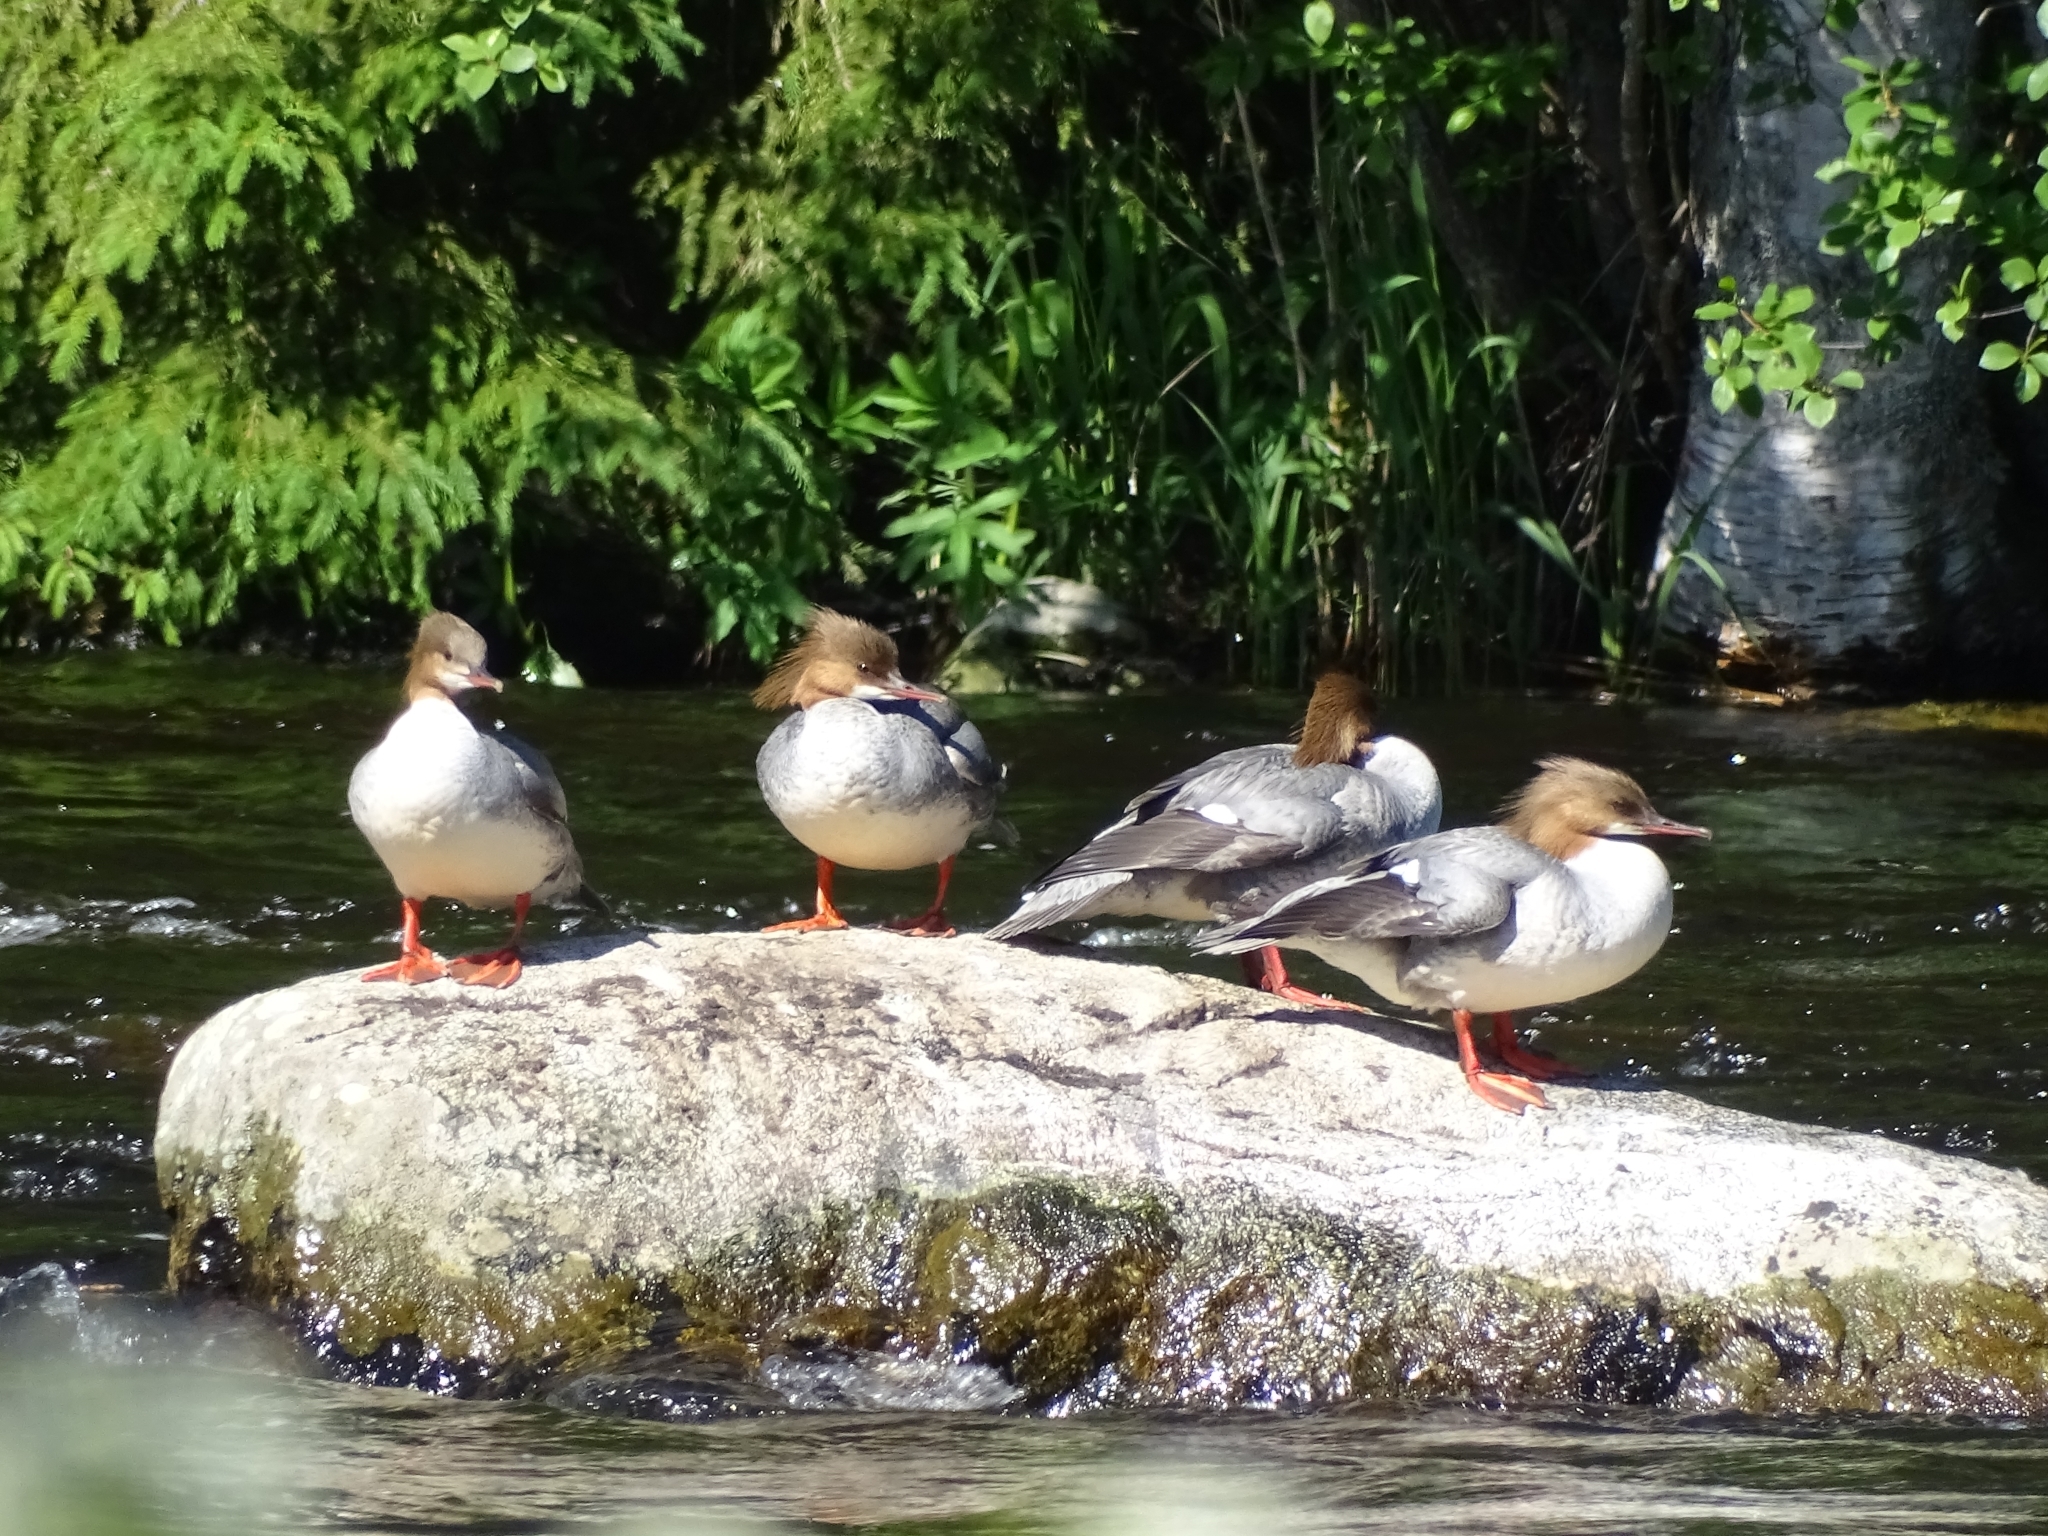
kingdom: Animalia
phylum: Chordata
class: Aves
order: Anseriformes
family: Anatidae
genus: Mergus
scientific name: Mergus merganser
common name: Common merganser
